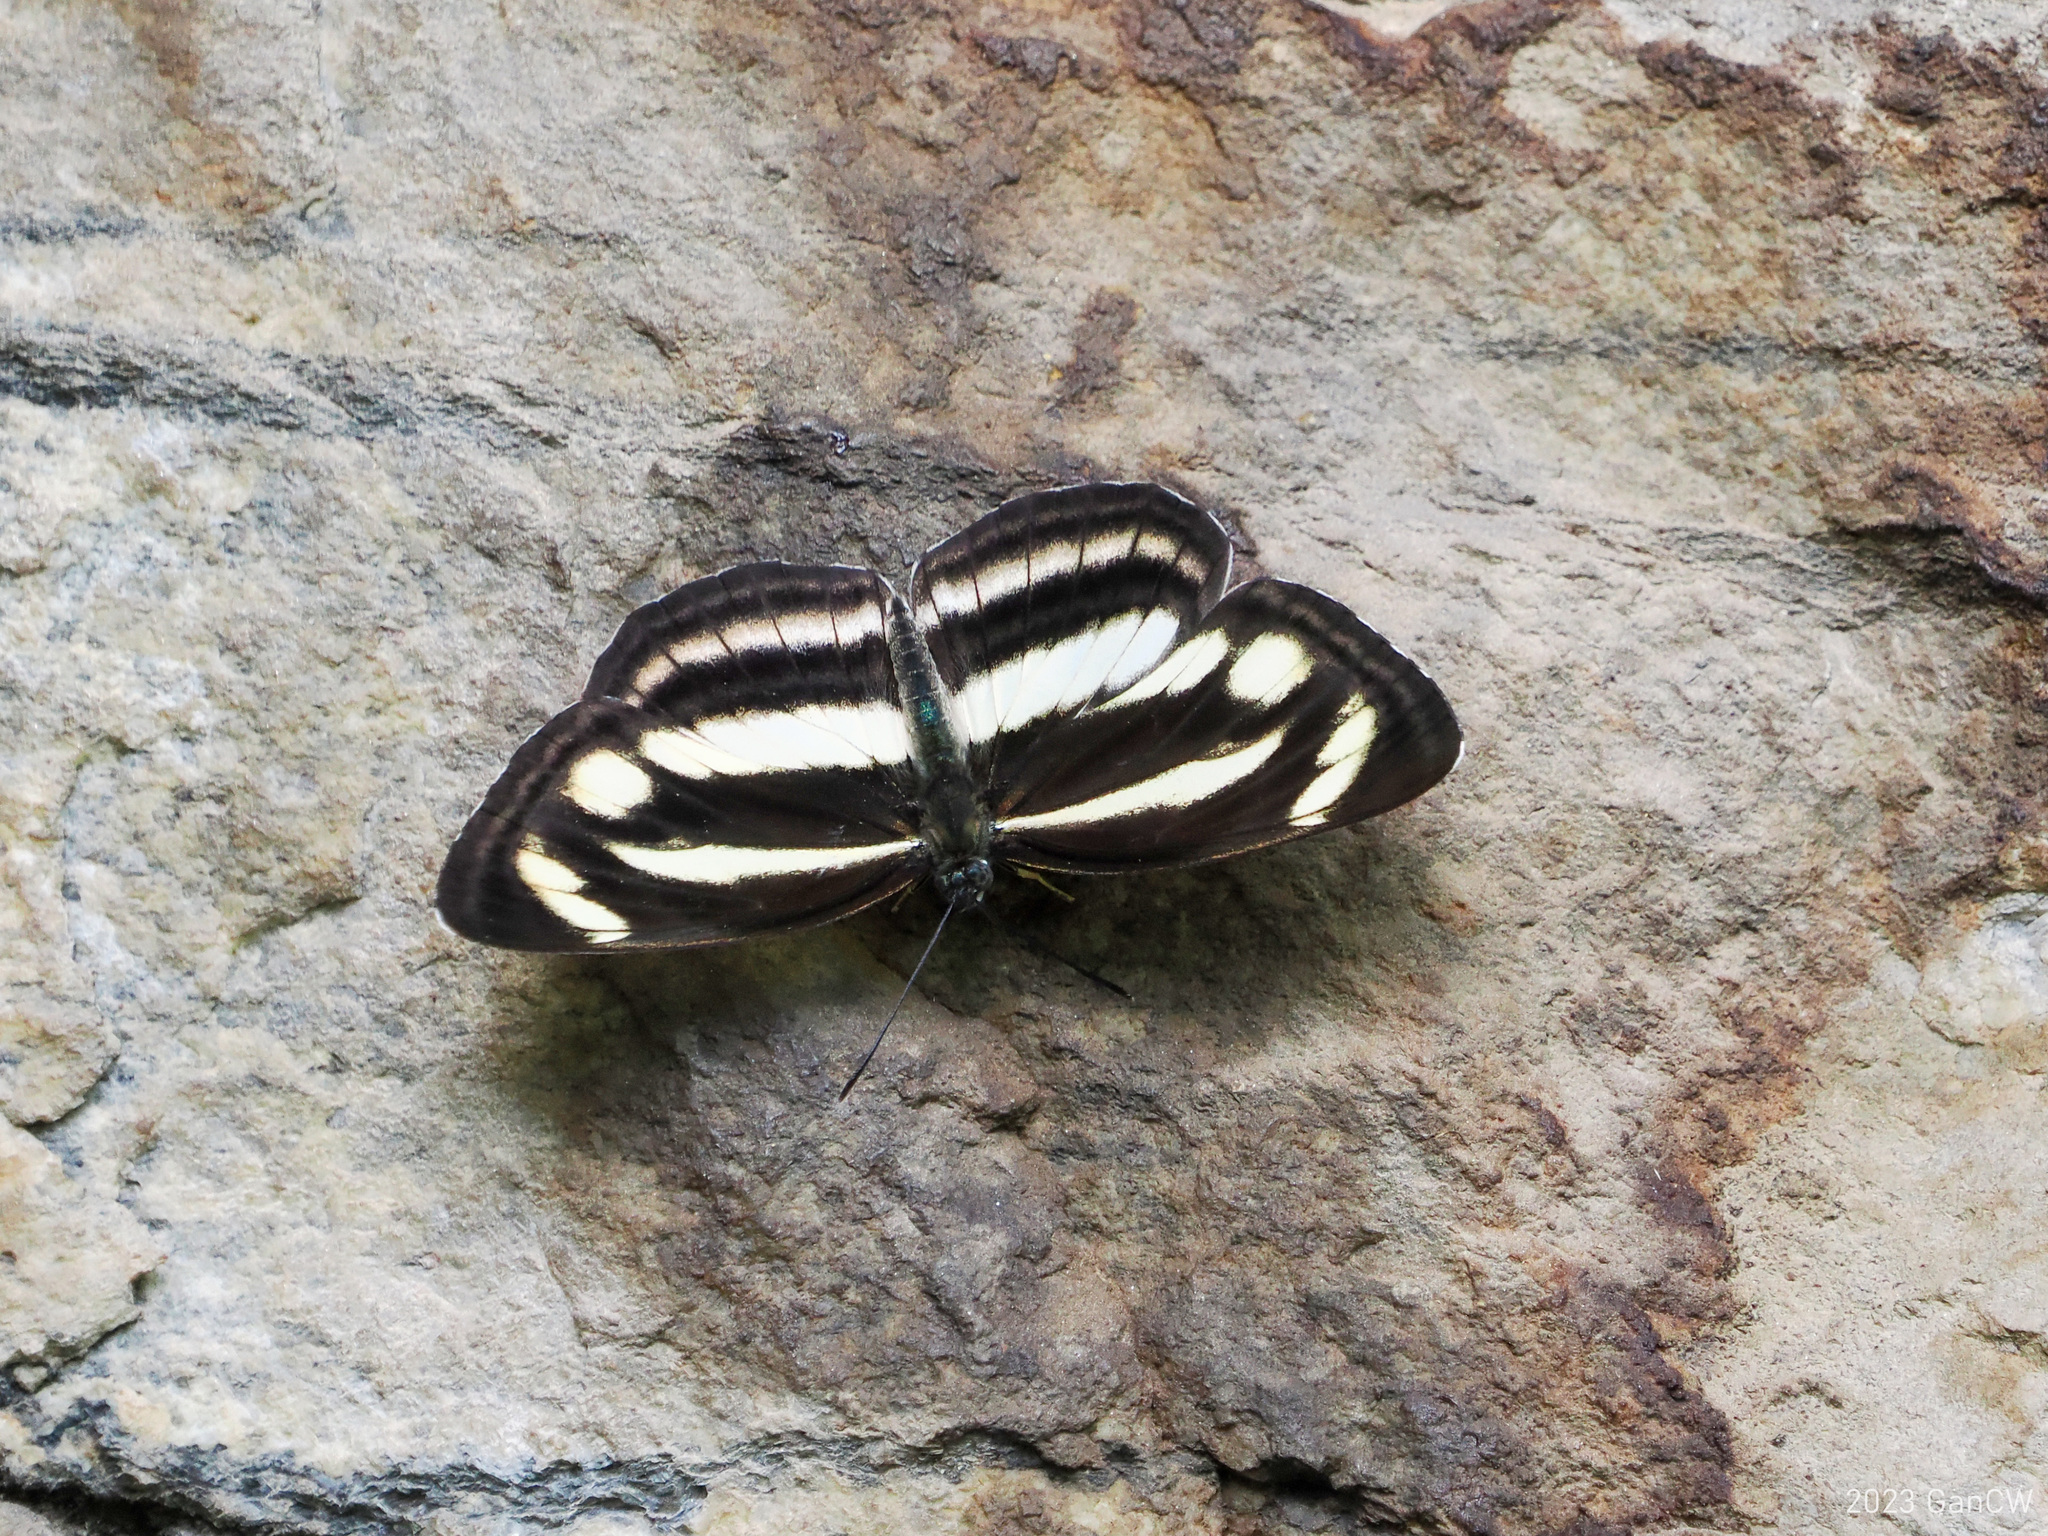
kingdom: Animalia
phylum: Arthropoda
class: Insecta
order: Lepidoptera
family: Nymphalidae
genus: Neptis
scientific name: Neptis zaida
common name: Variable sailor
